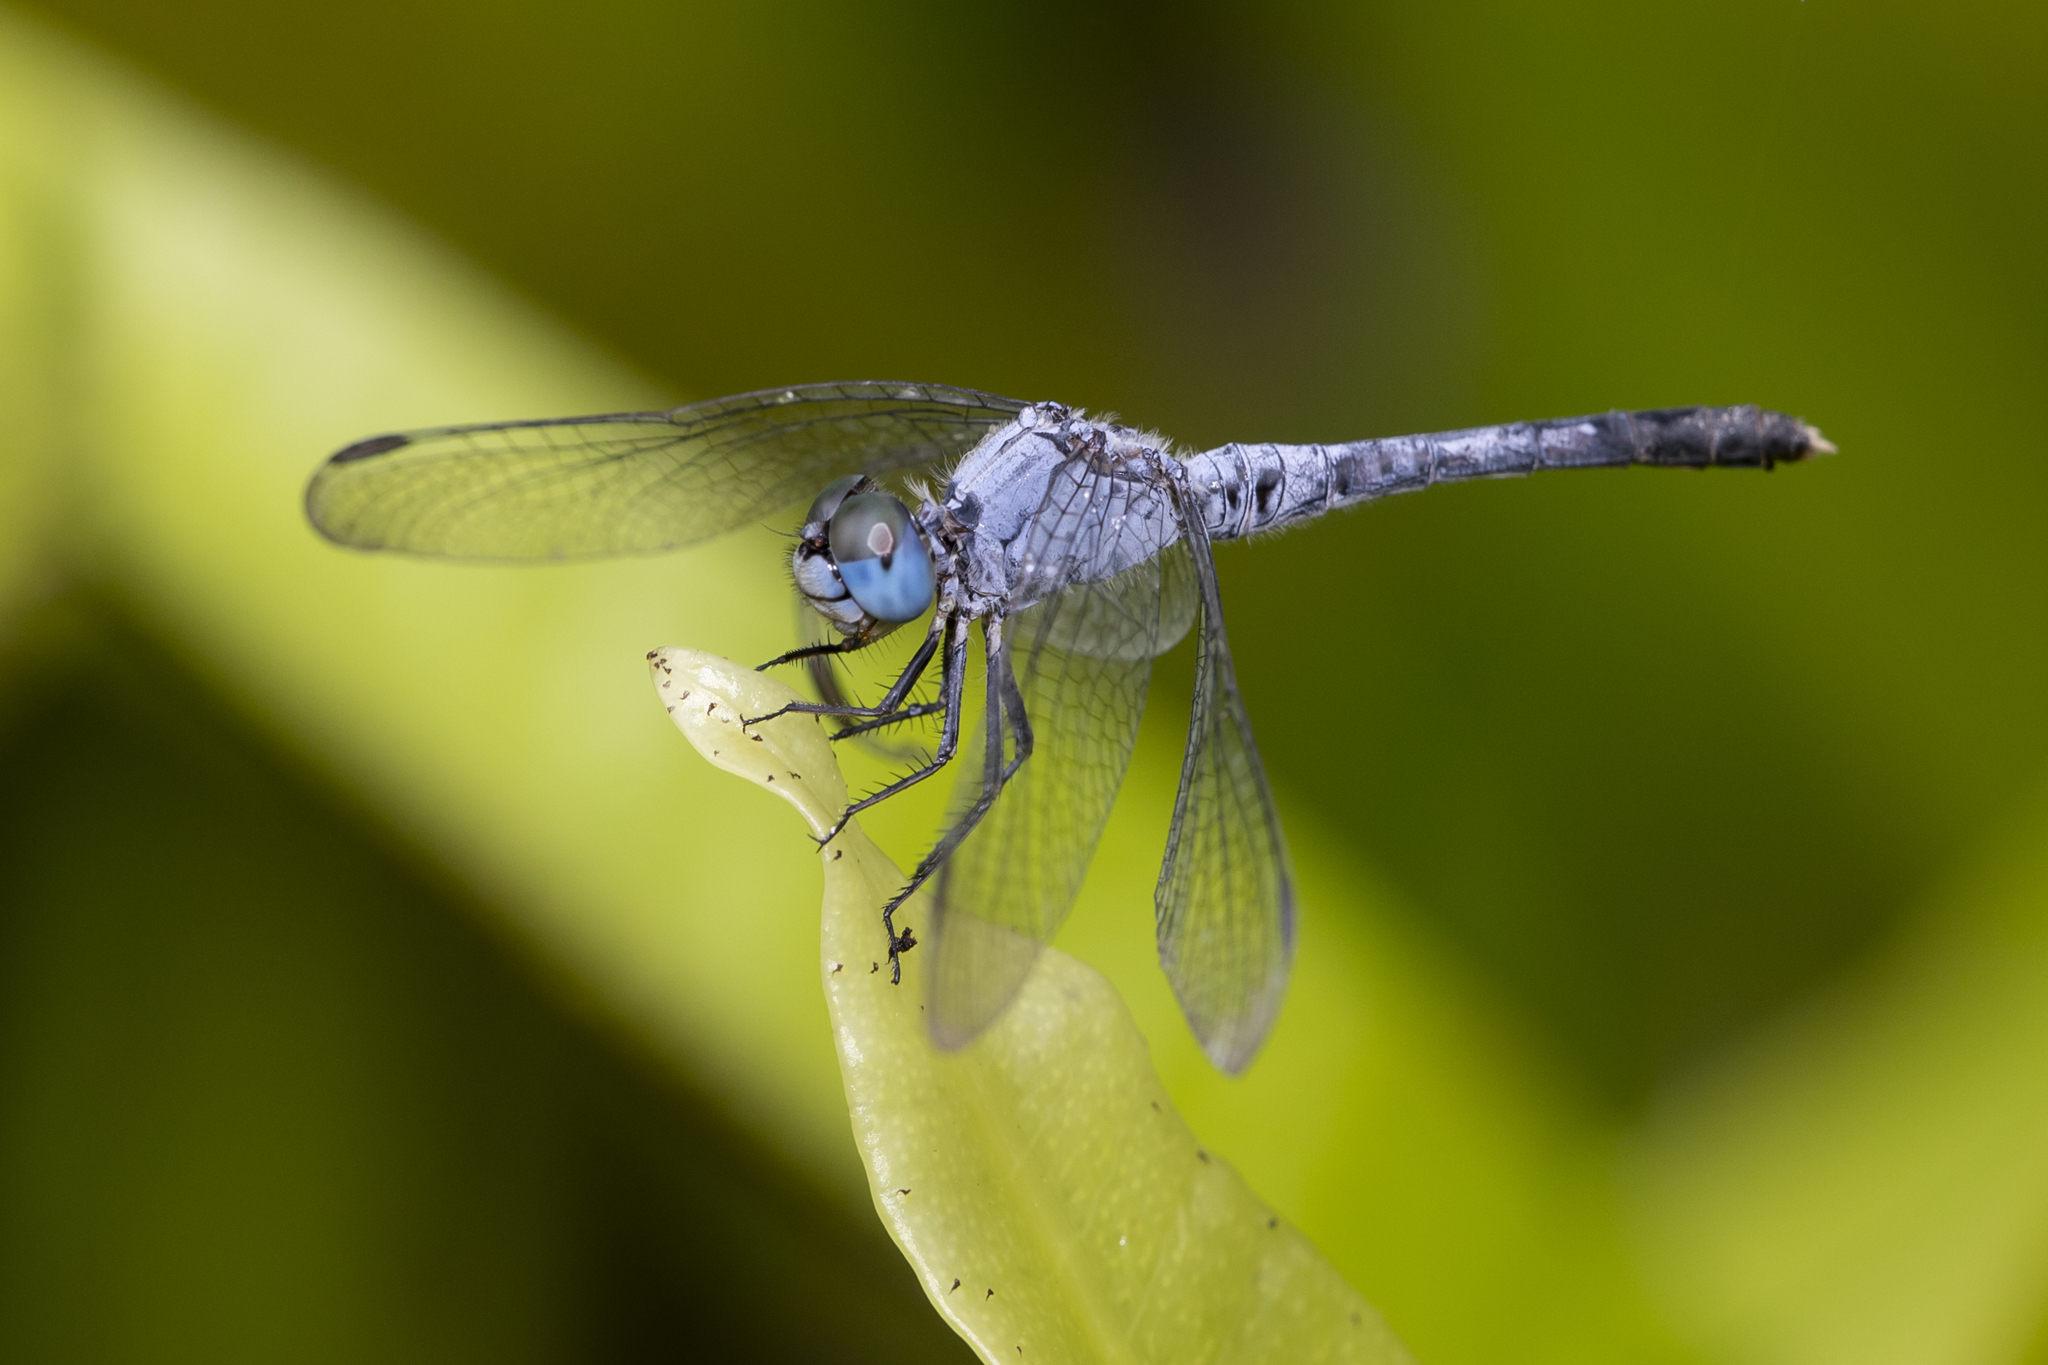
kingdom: Animalia
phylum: Arthropoda
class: Insecta
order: Odonata
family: Libellulidae
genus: Diplacodes
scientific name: Diplacodes trivialis
